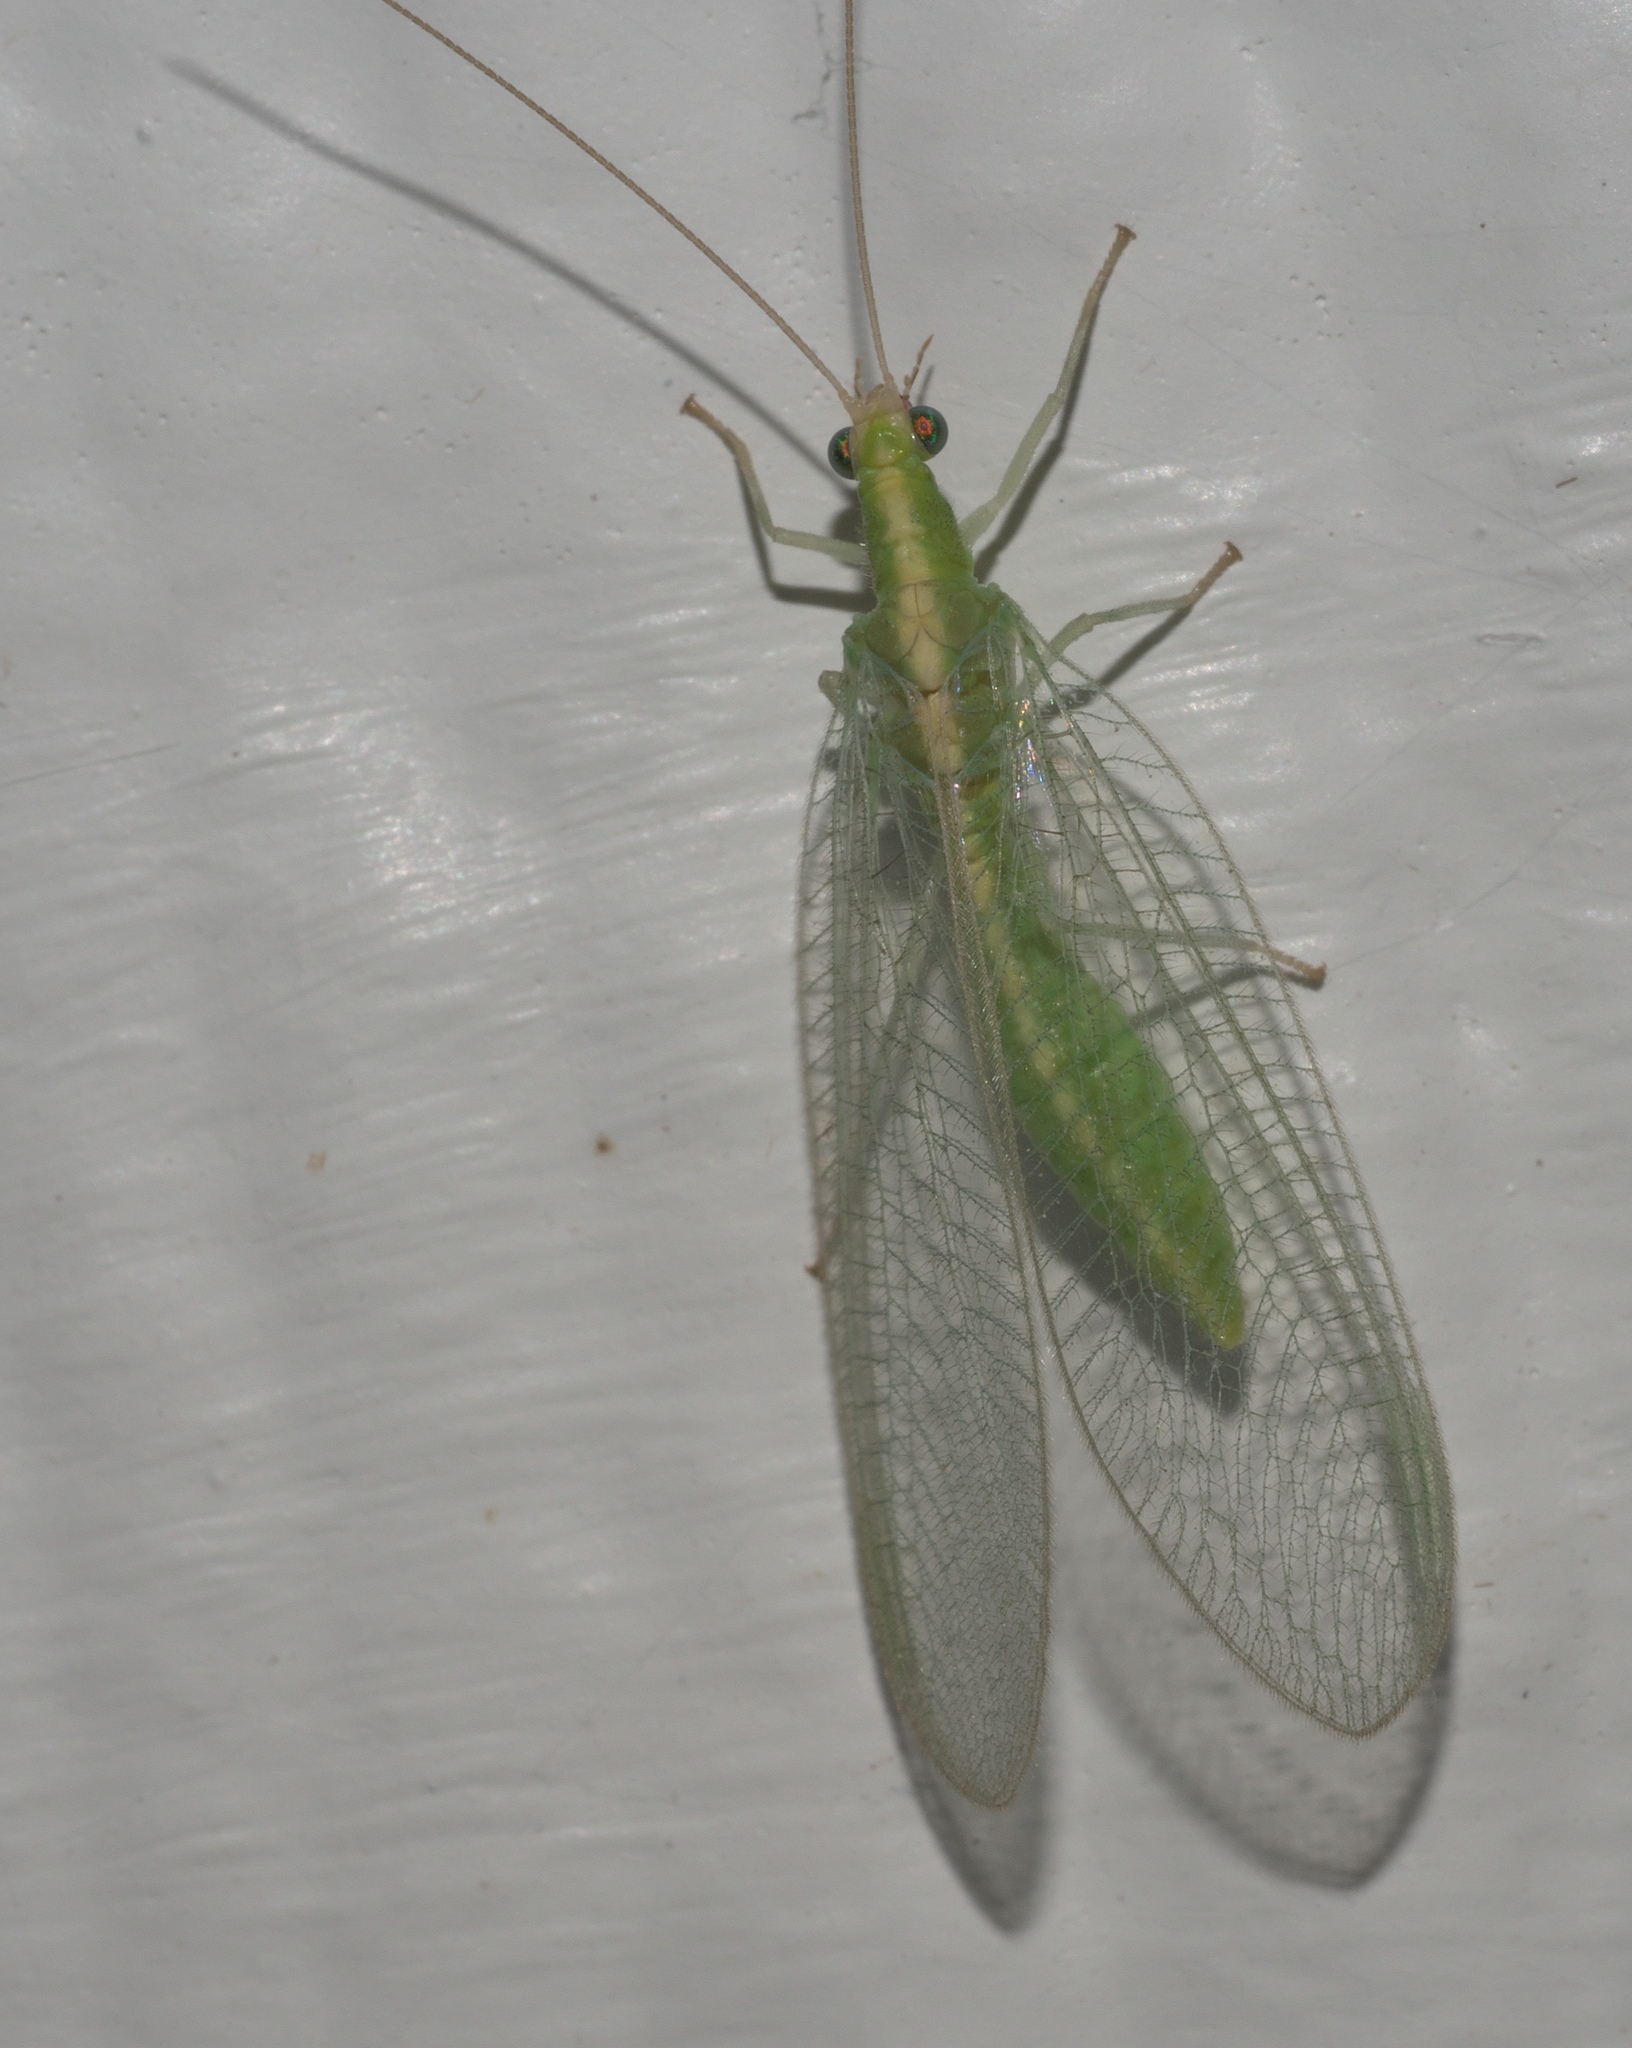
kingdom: Animalia
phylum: Arthropoda
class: Insecta
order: Neuroptera
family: Chrysopidae
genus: Chrysoperla
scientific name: Chrysoperla
